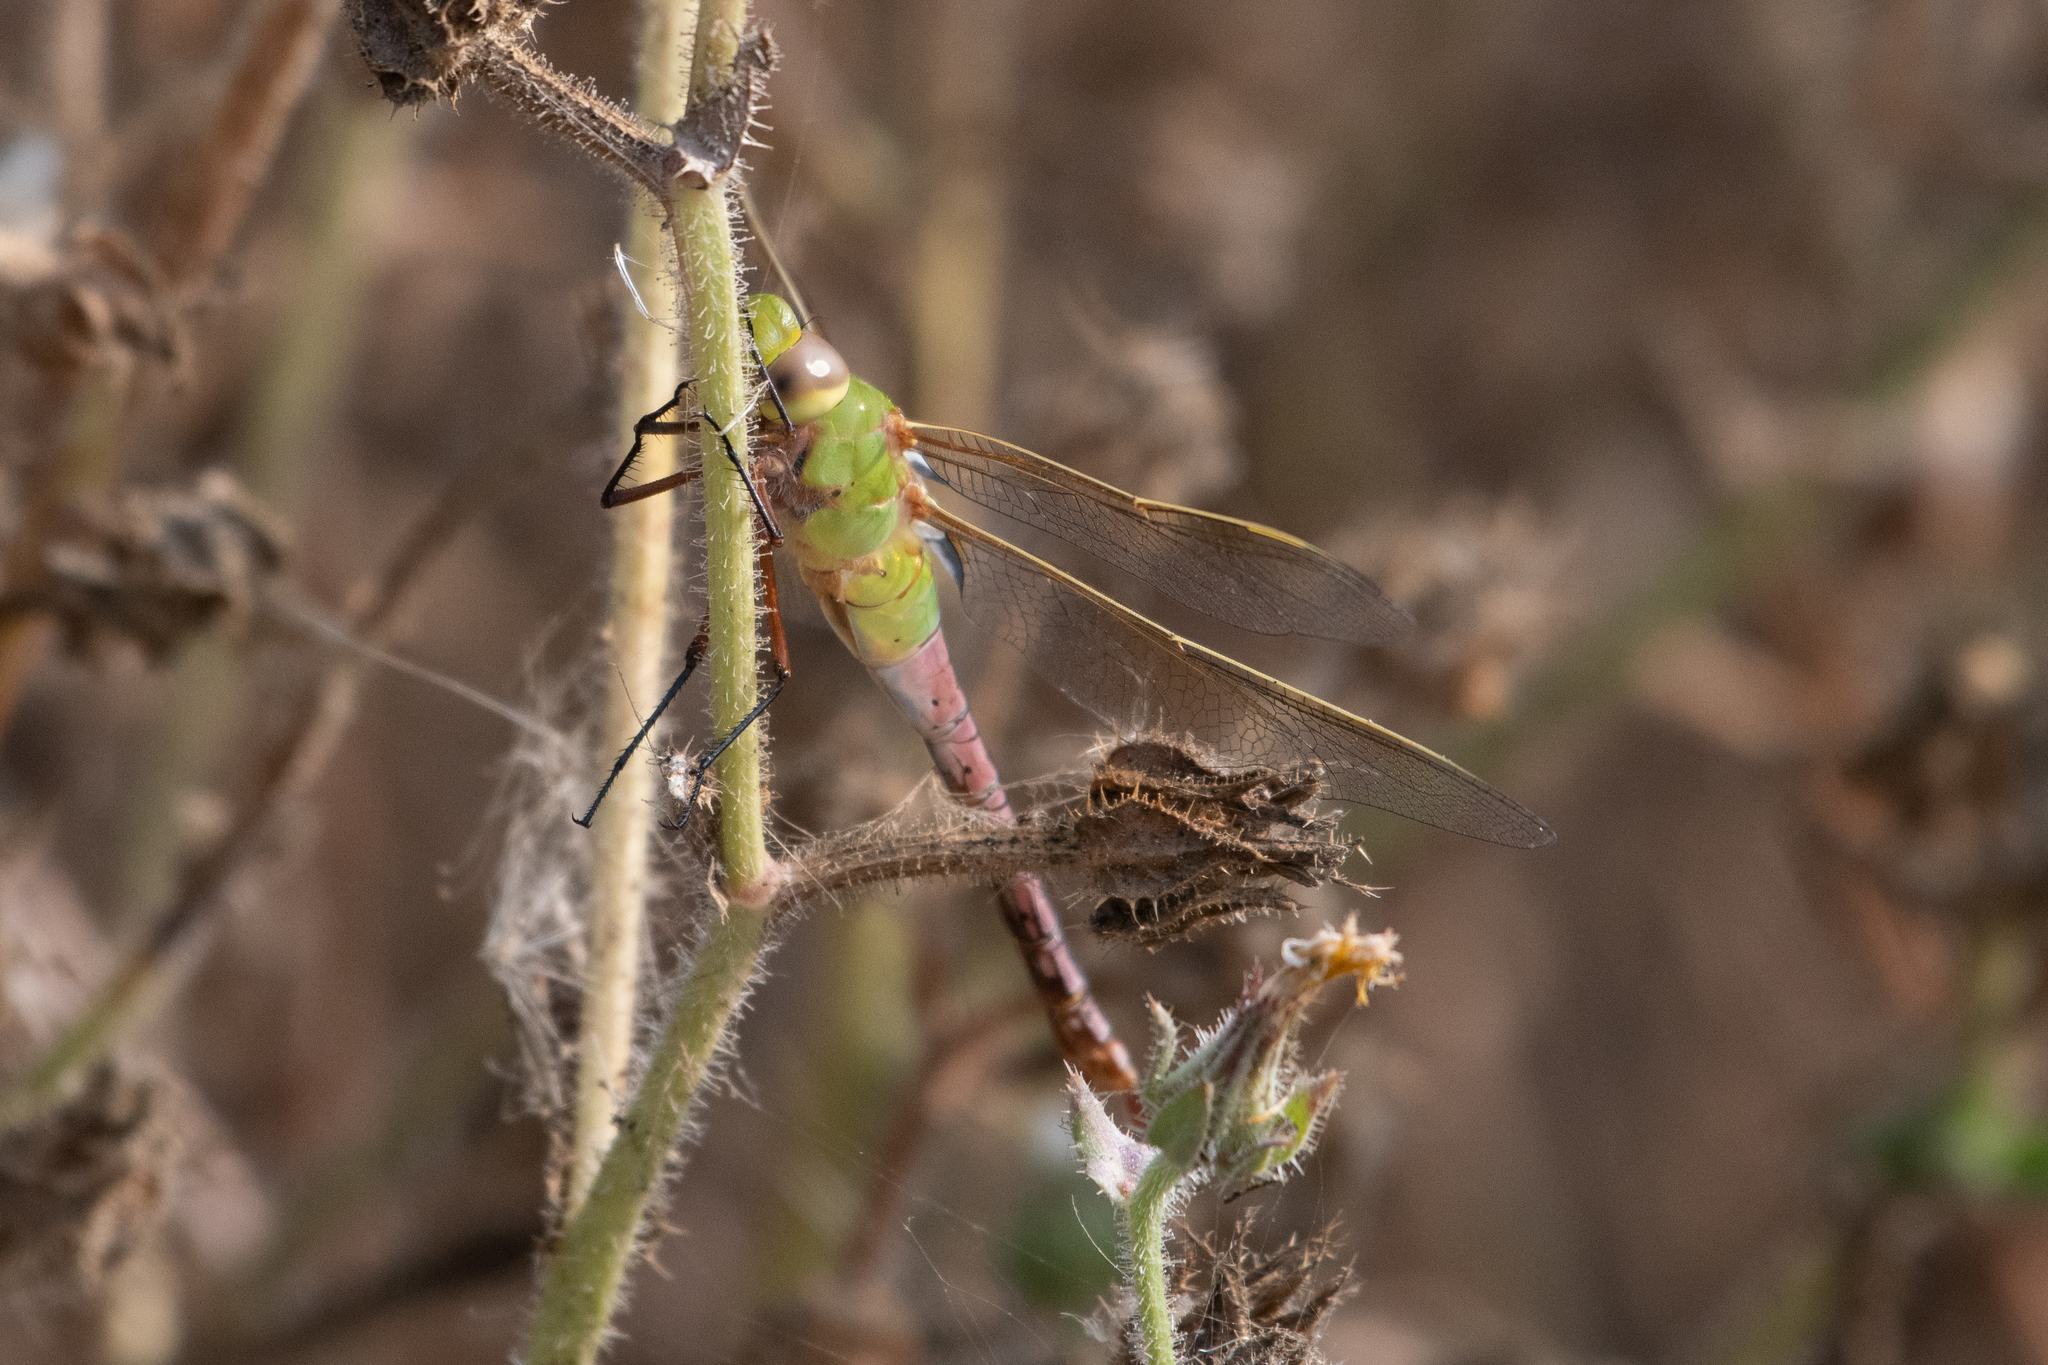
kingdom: Animalia
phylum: Arthropoda
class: Insecta
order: Odonata
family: Aeshnidae
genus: Anax
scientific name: Anax junius
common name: Common green darner
